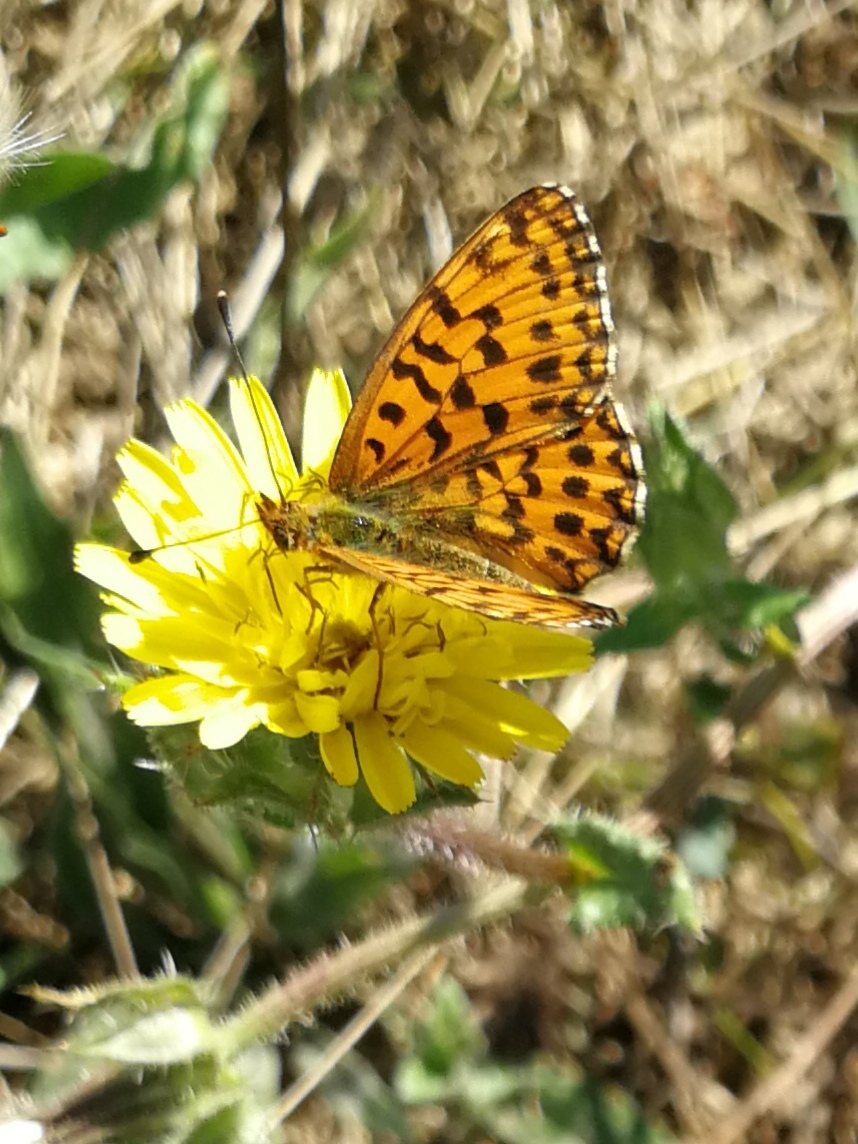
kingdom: Animalia
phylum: Arthropoda
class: Insecta
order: Lepidoptera
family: Nymphalidae
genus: Boloria
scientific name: Boloria dia
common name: Weaver's fritillary
